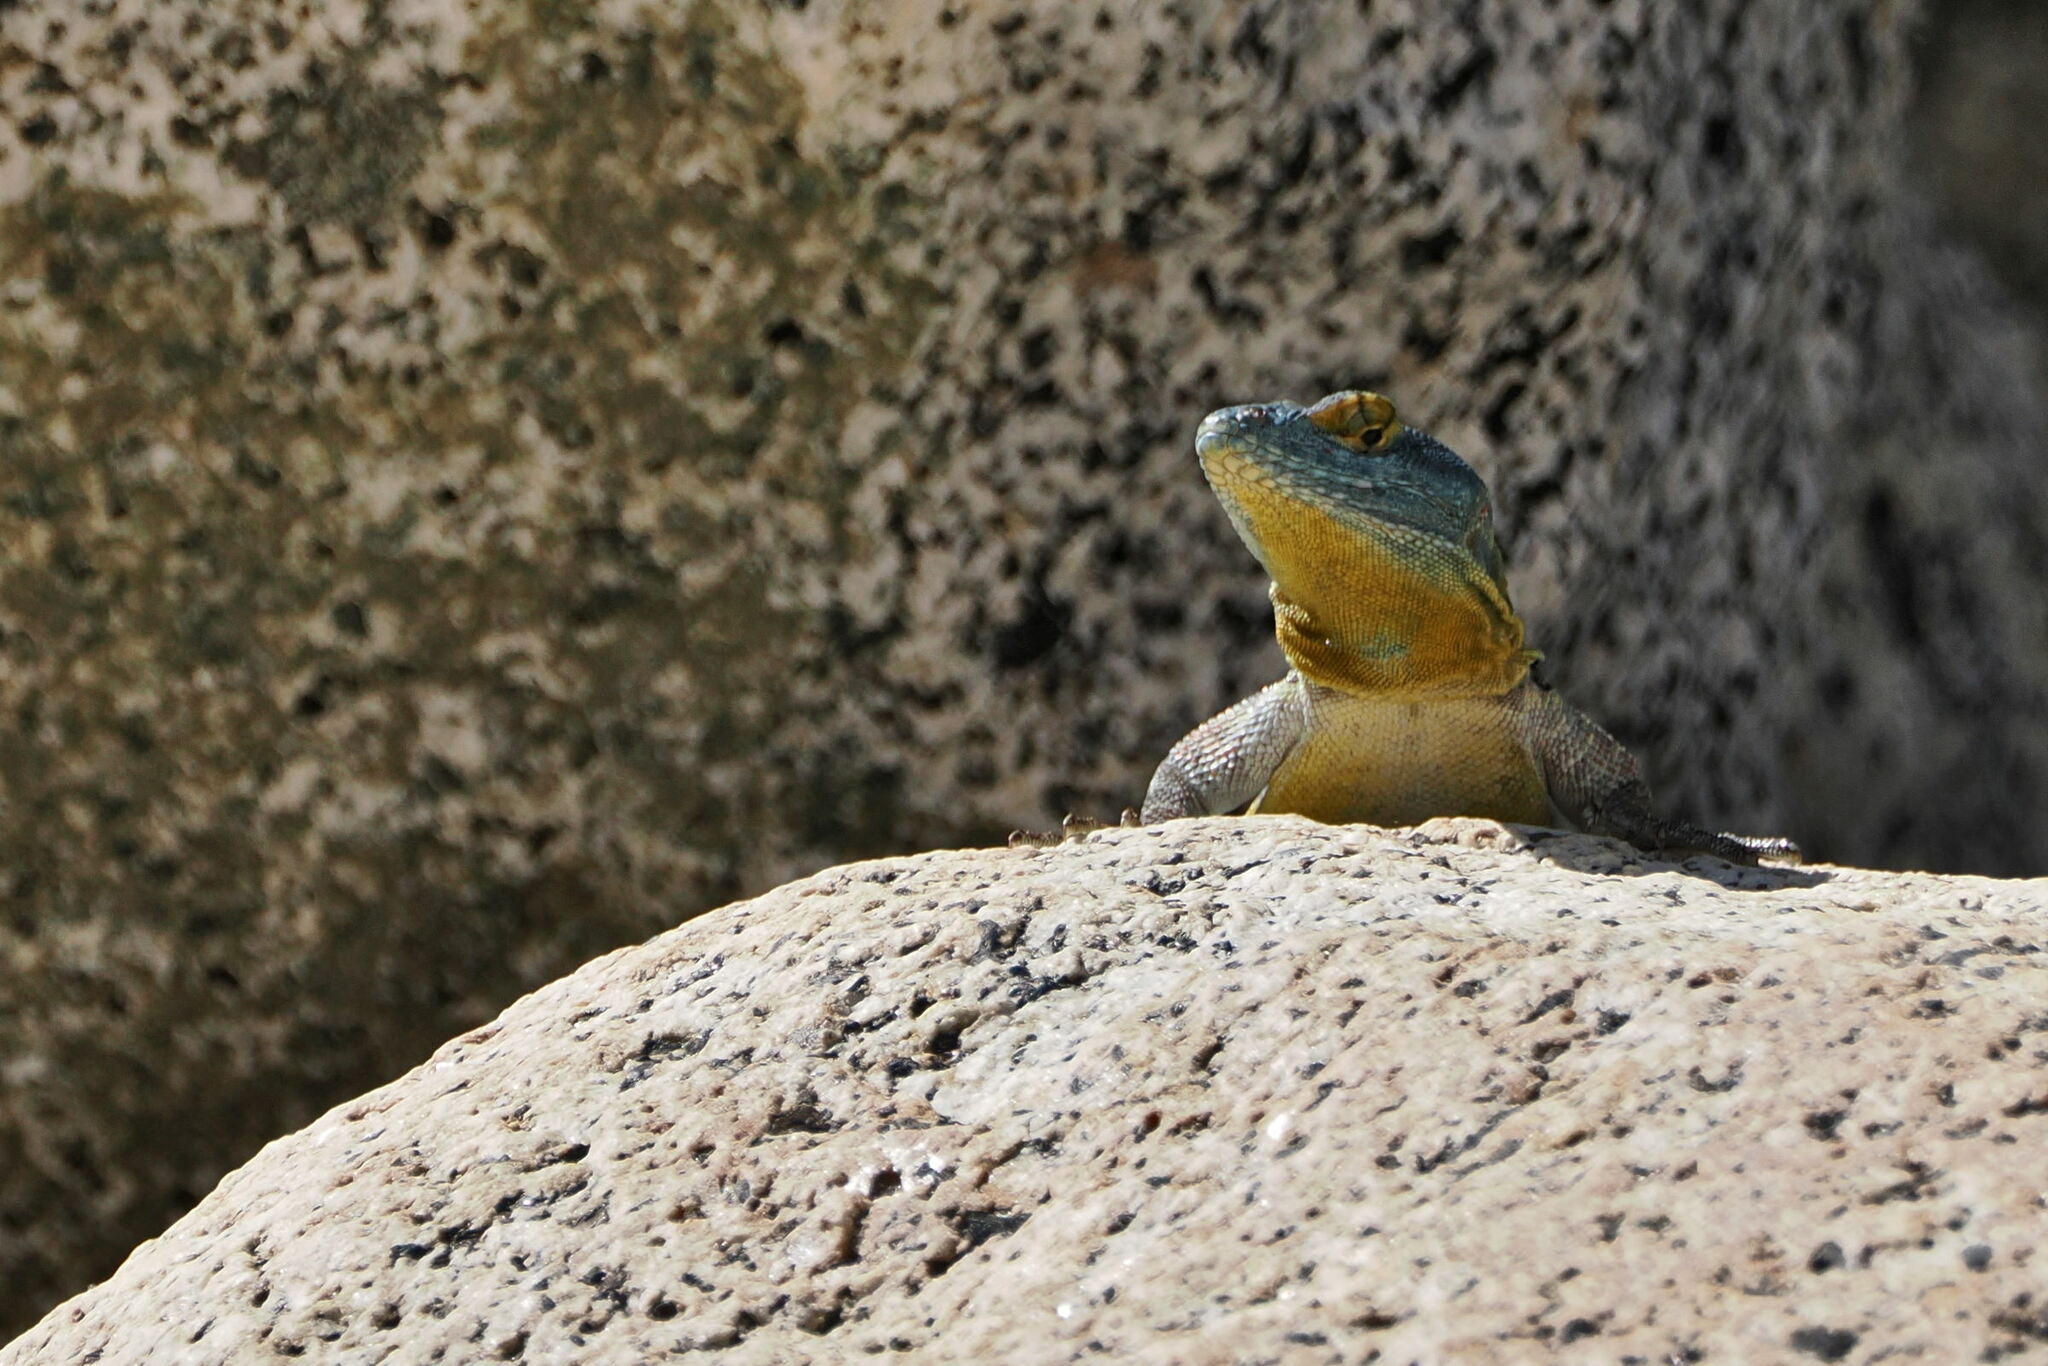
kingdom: Animalia
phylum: Chordata
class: Squamata
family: Phrynosomatidae
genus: Petrosaurus
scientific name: Petrosaurus thalassinus
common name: Baja california rock lizard
